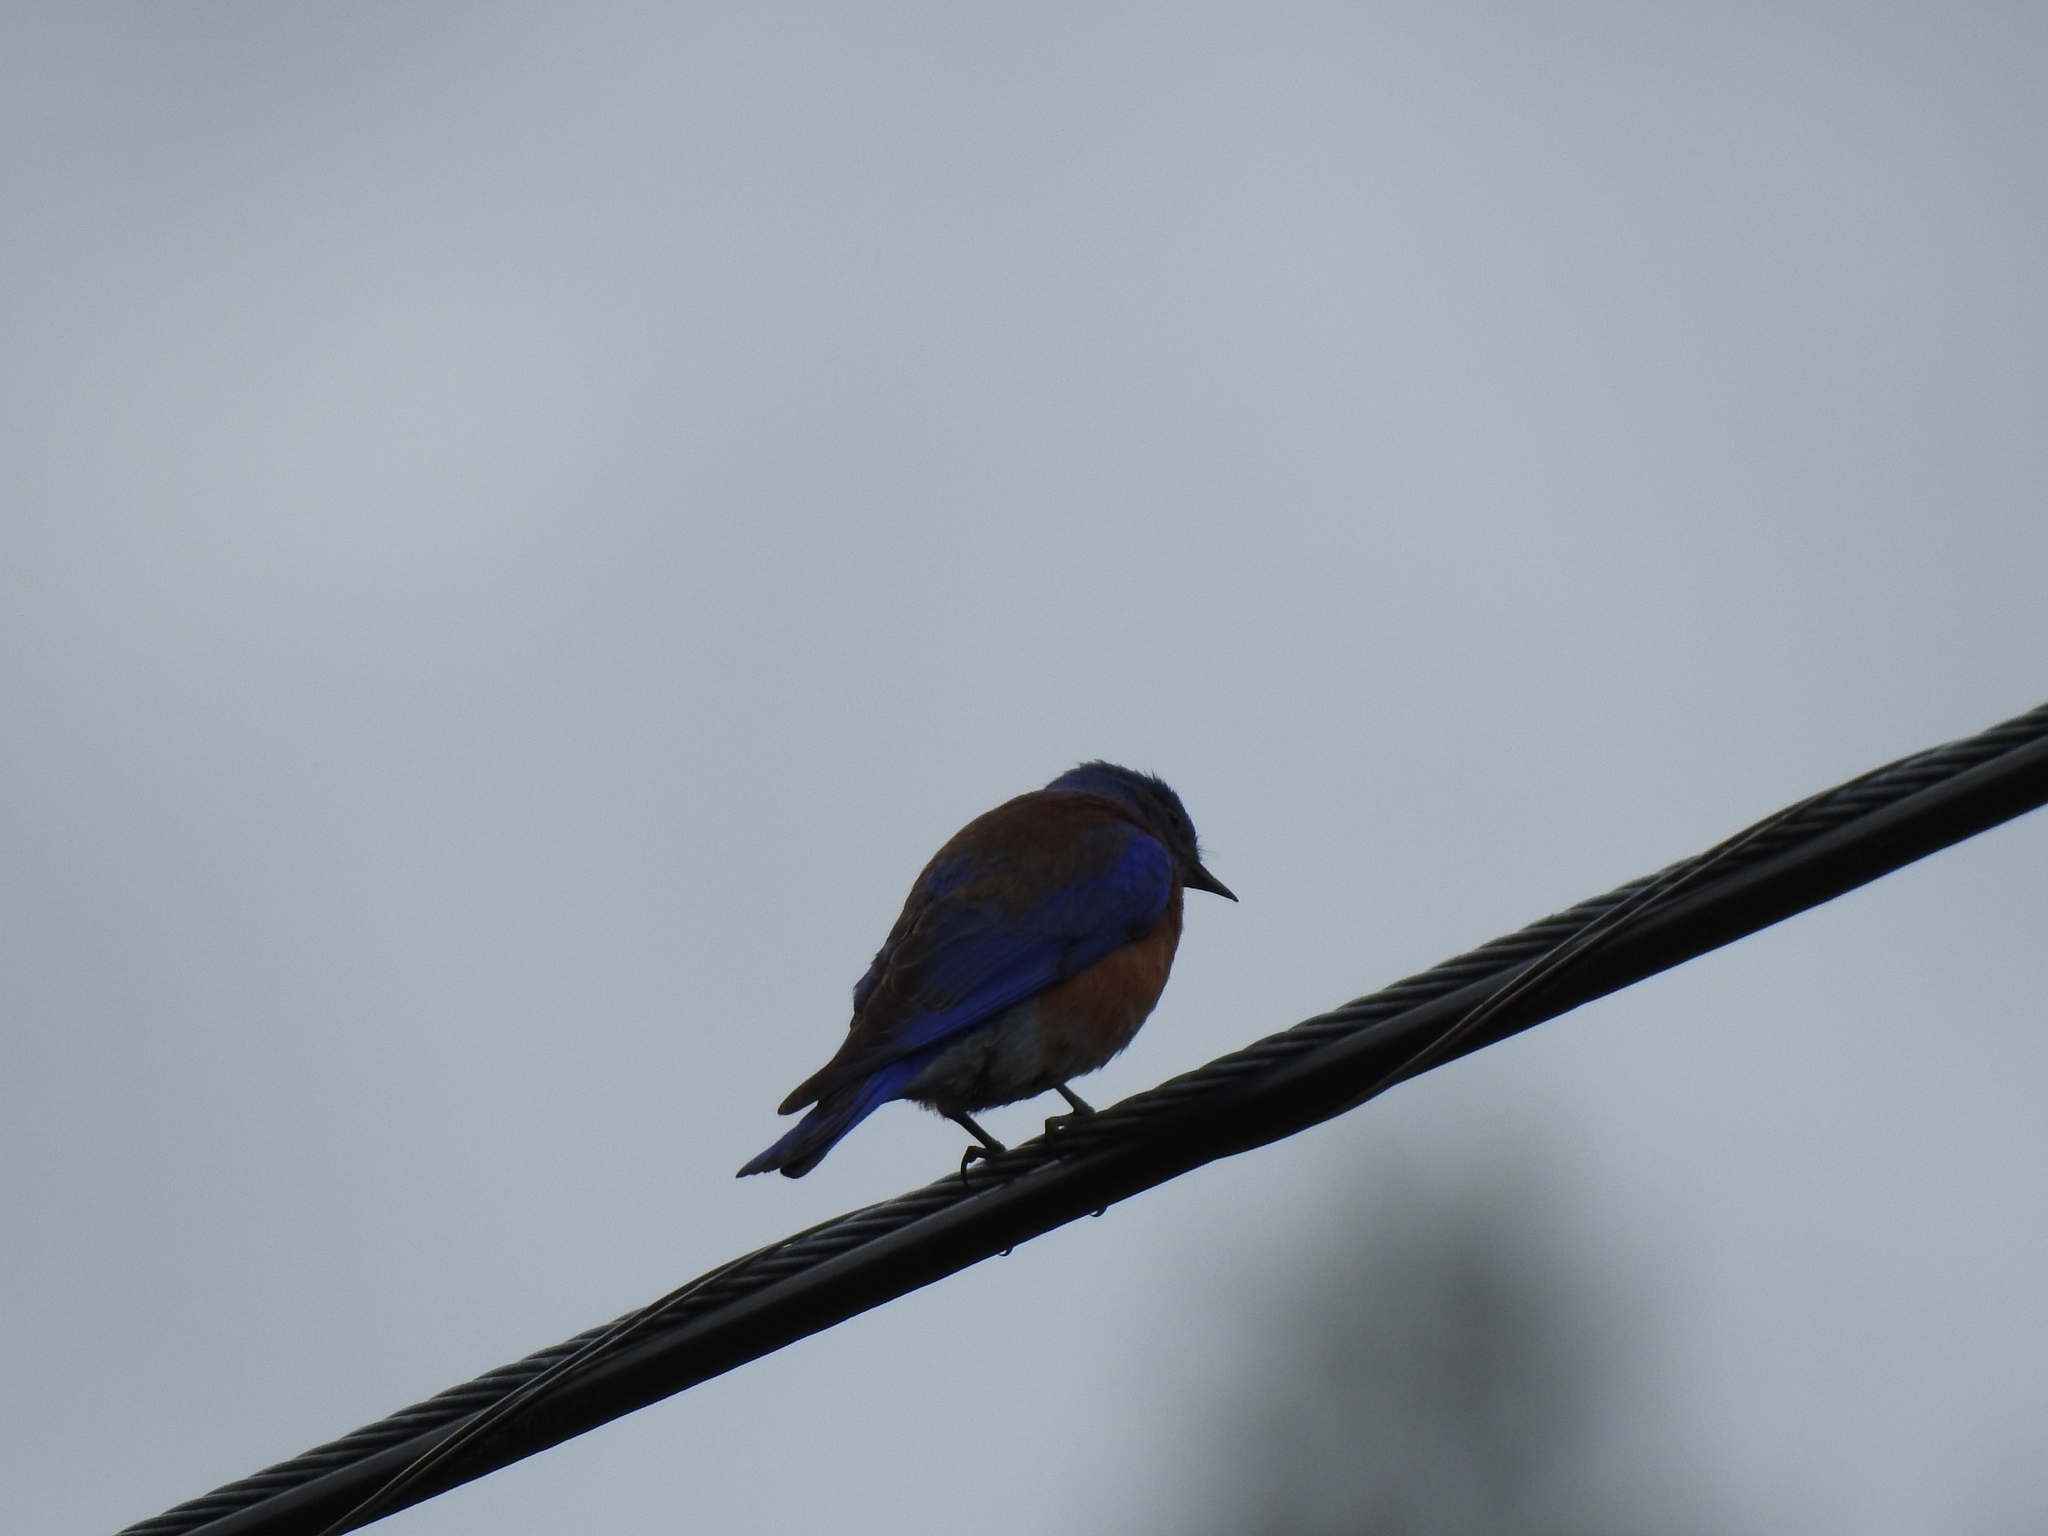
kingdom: Animalia
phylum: Chordata
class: Aves
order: Passeriformes
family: Turdidae
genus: Sialia
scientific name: Sialia mexicana
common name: Western bluebird
